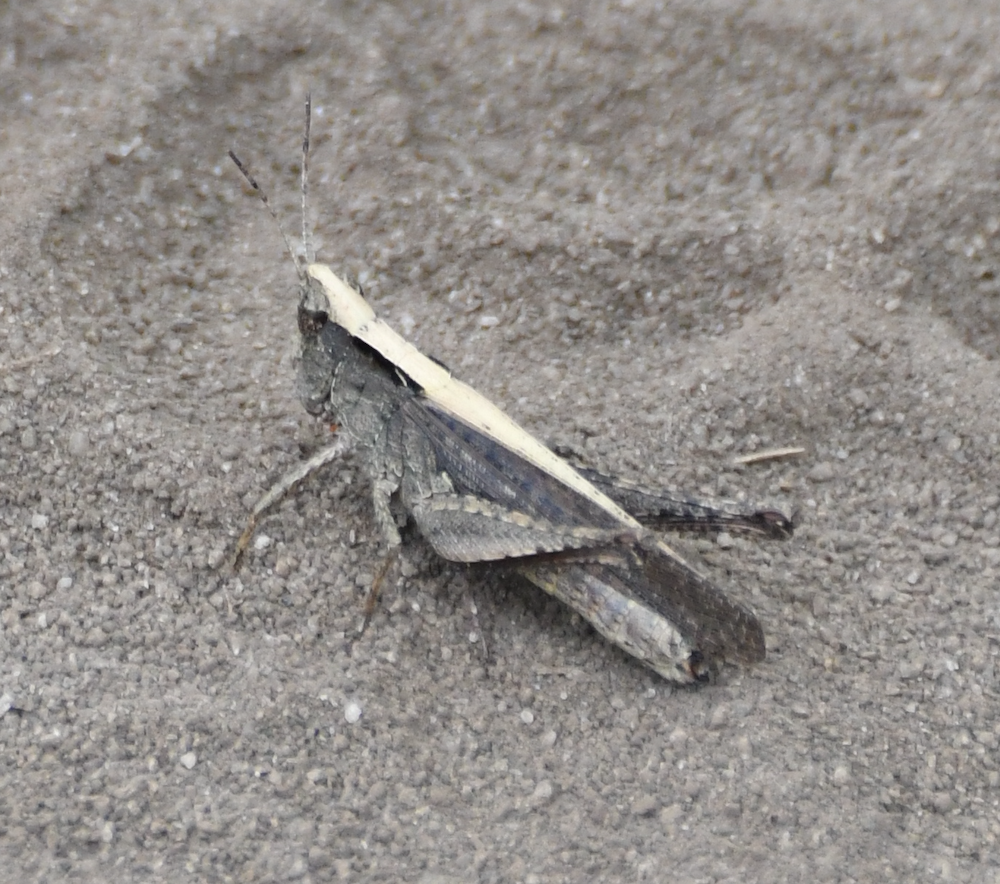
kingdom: Animalia
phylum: Arthropoda
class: Insecta
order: Orthoptera
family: Acrididae
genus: Orphula
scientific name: Orphula azteca
